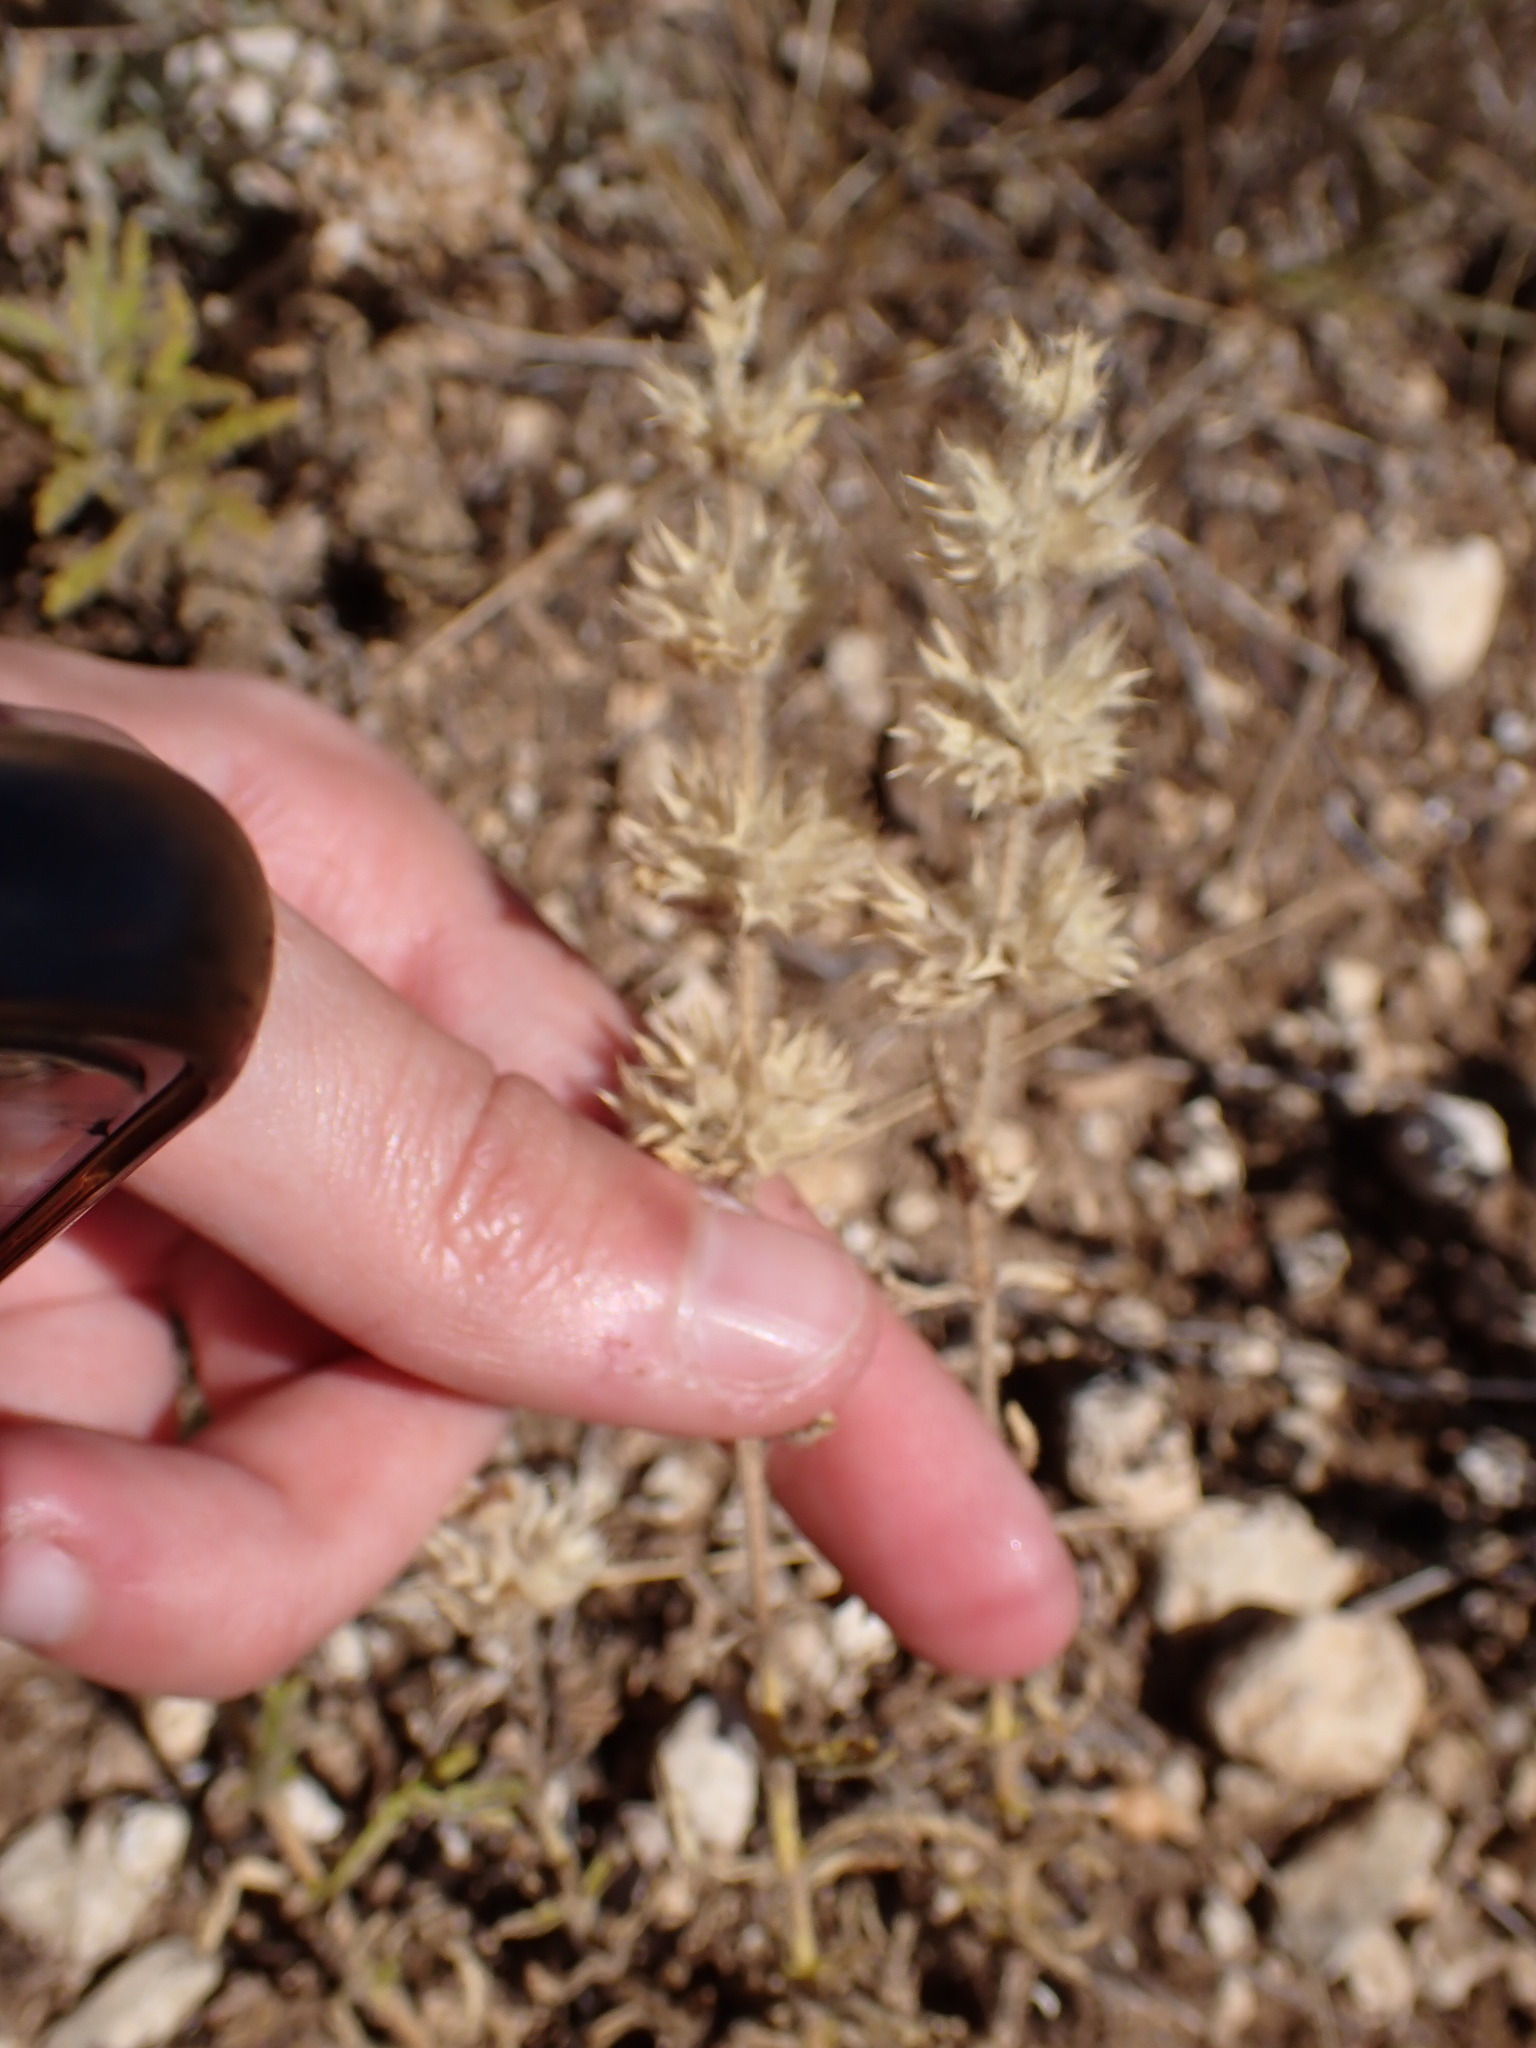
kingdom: Plantae
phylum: Tracheophyta
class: Magnoliopsida
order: Lamiales
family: Lamiaceae
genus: Sideritis
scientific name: Sideritis romana
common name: Simplebeak ironwort
